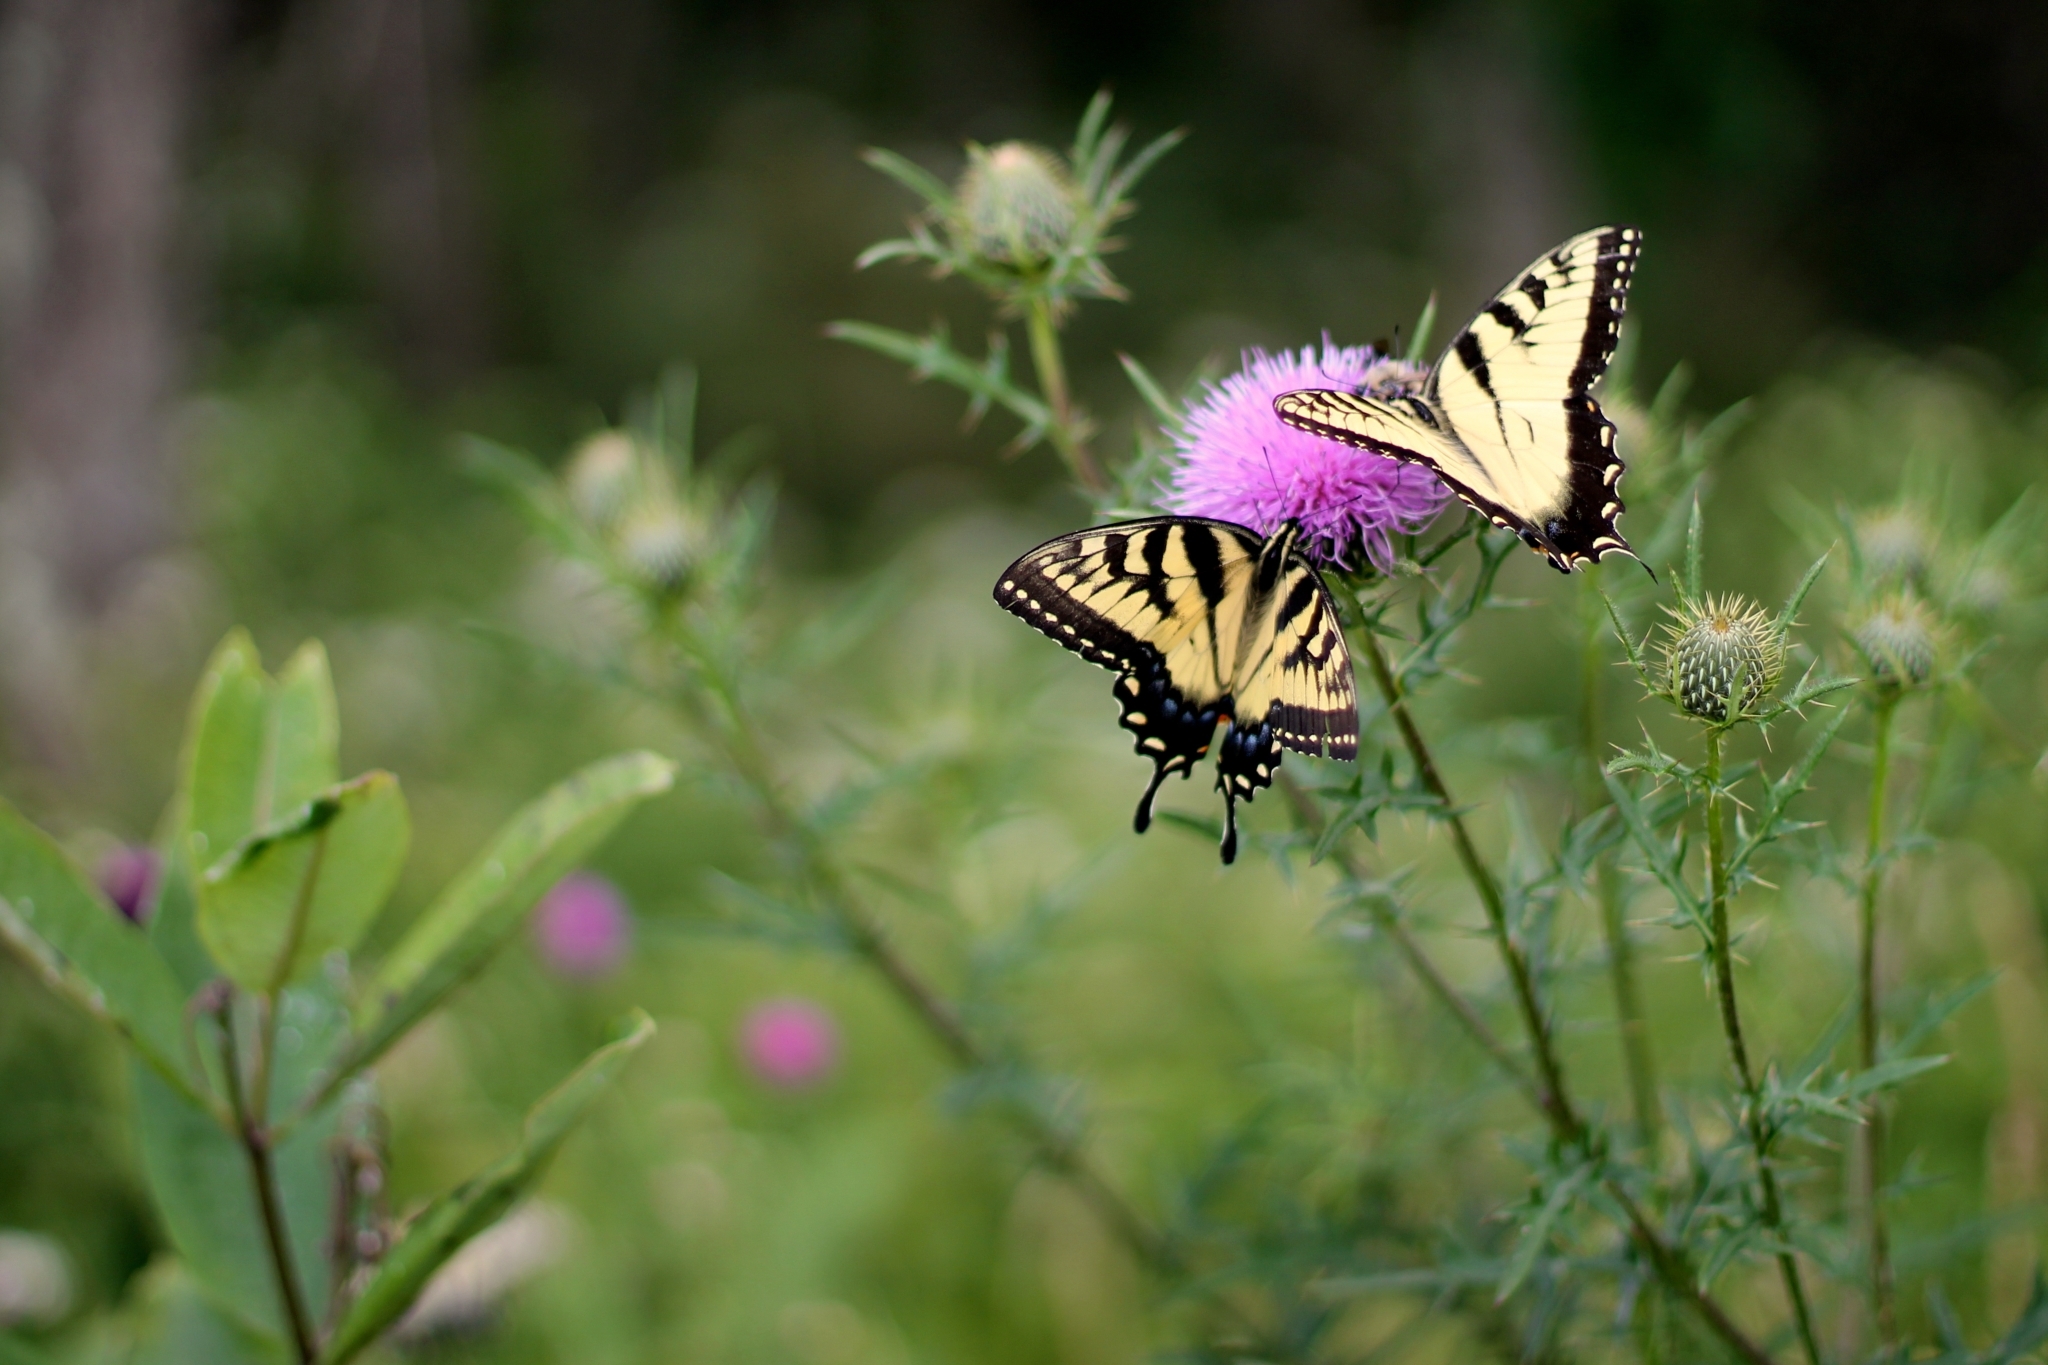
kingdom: Animalia
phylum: Arthropoda
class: Insecta
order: Lepidoptera
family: Papilionidae
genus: Papilio
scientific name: Papilio glaucus
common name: Tiger swallowtail
